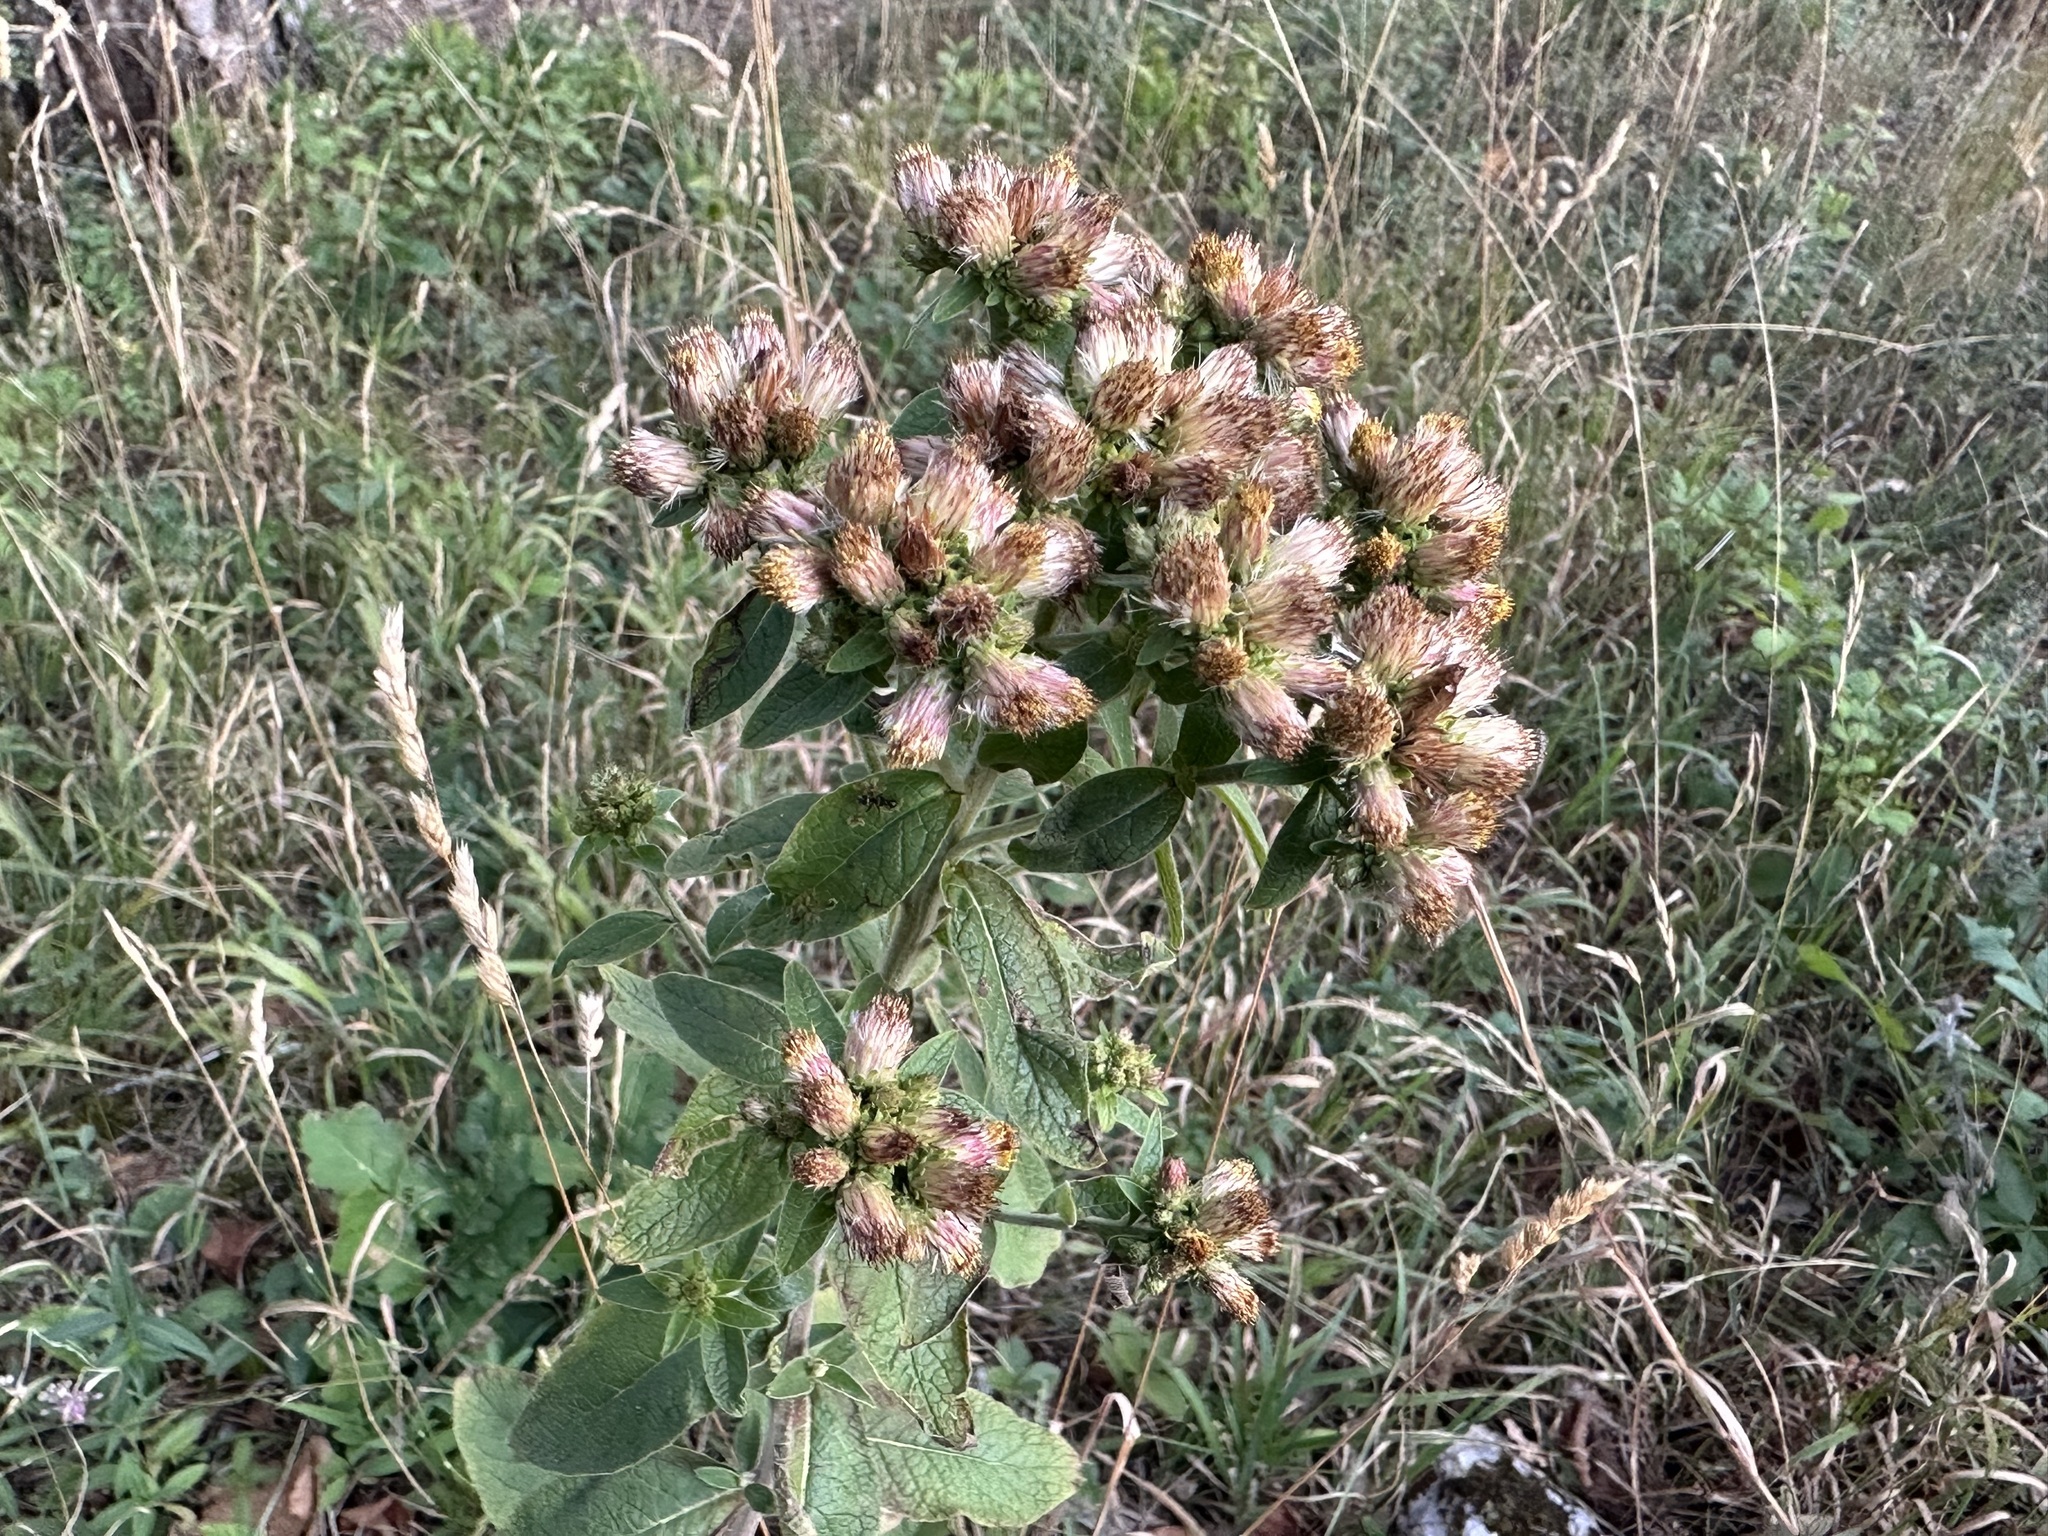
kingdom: Plantae
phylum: Tracheophyta
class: Magnoliopsida
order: Asterales
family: Asteraceae
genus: Pentanema
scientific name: Pentanema squarrosum
